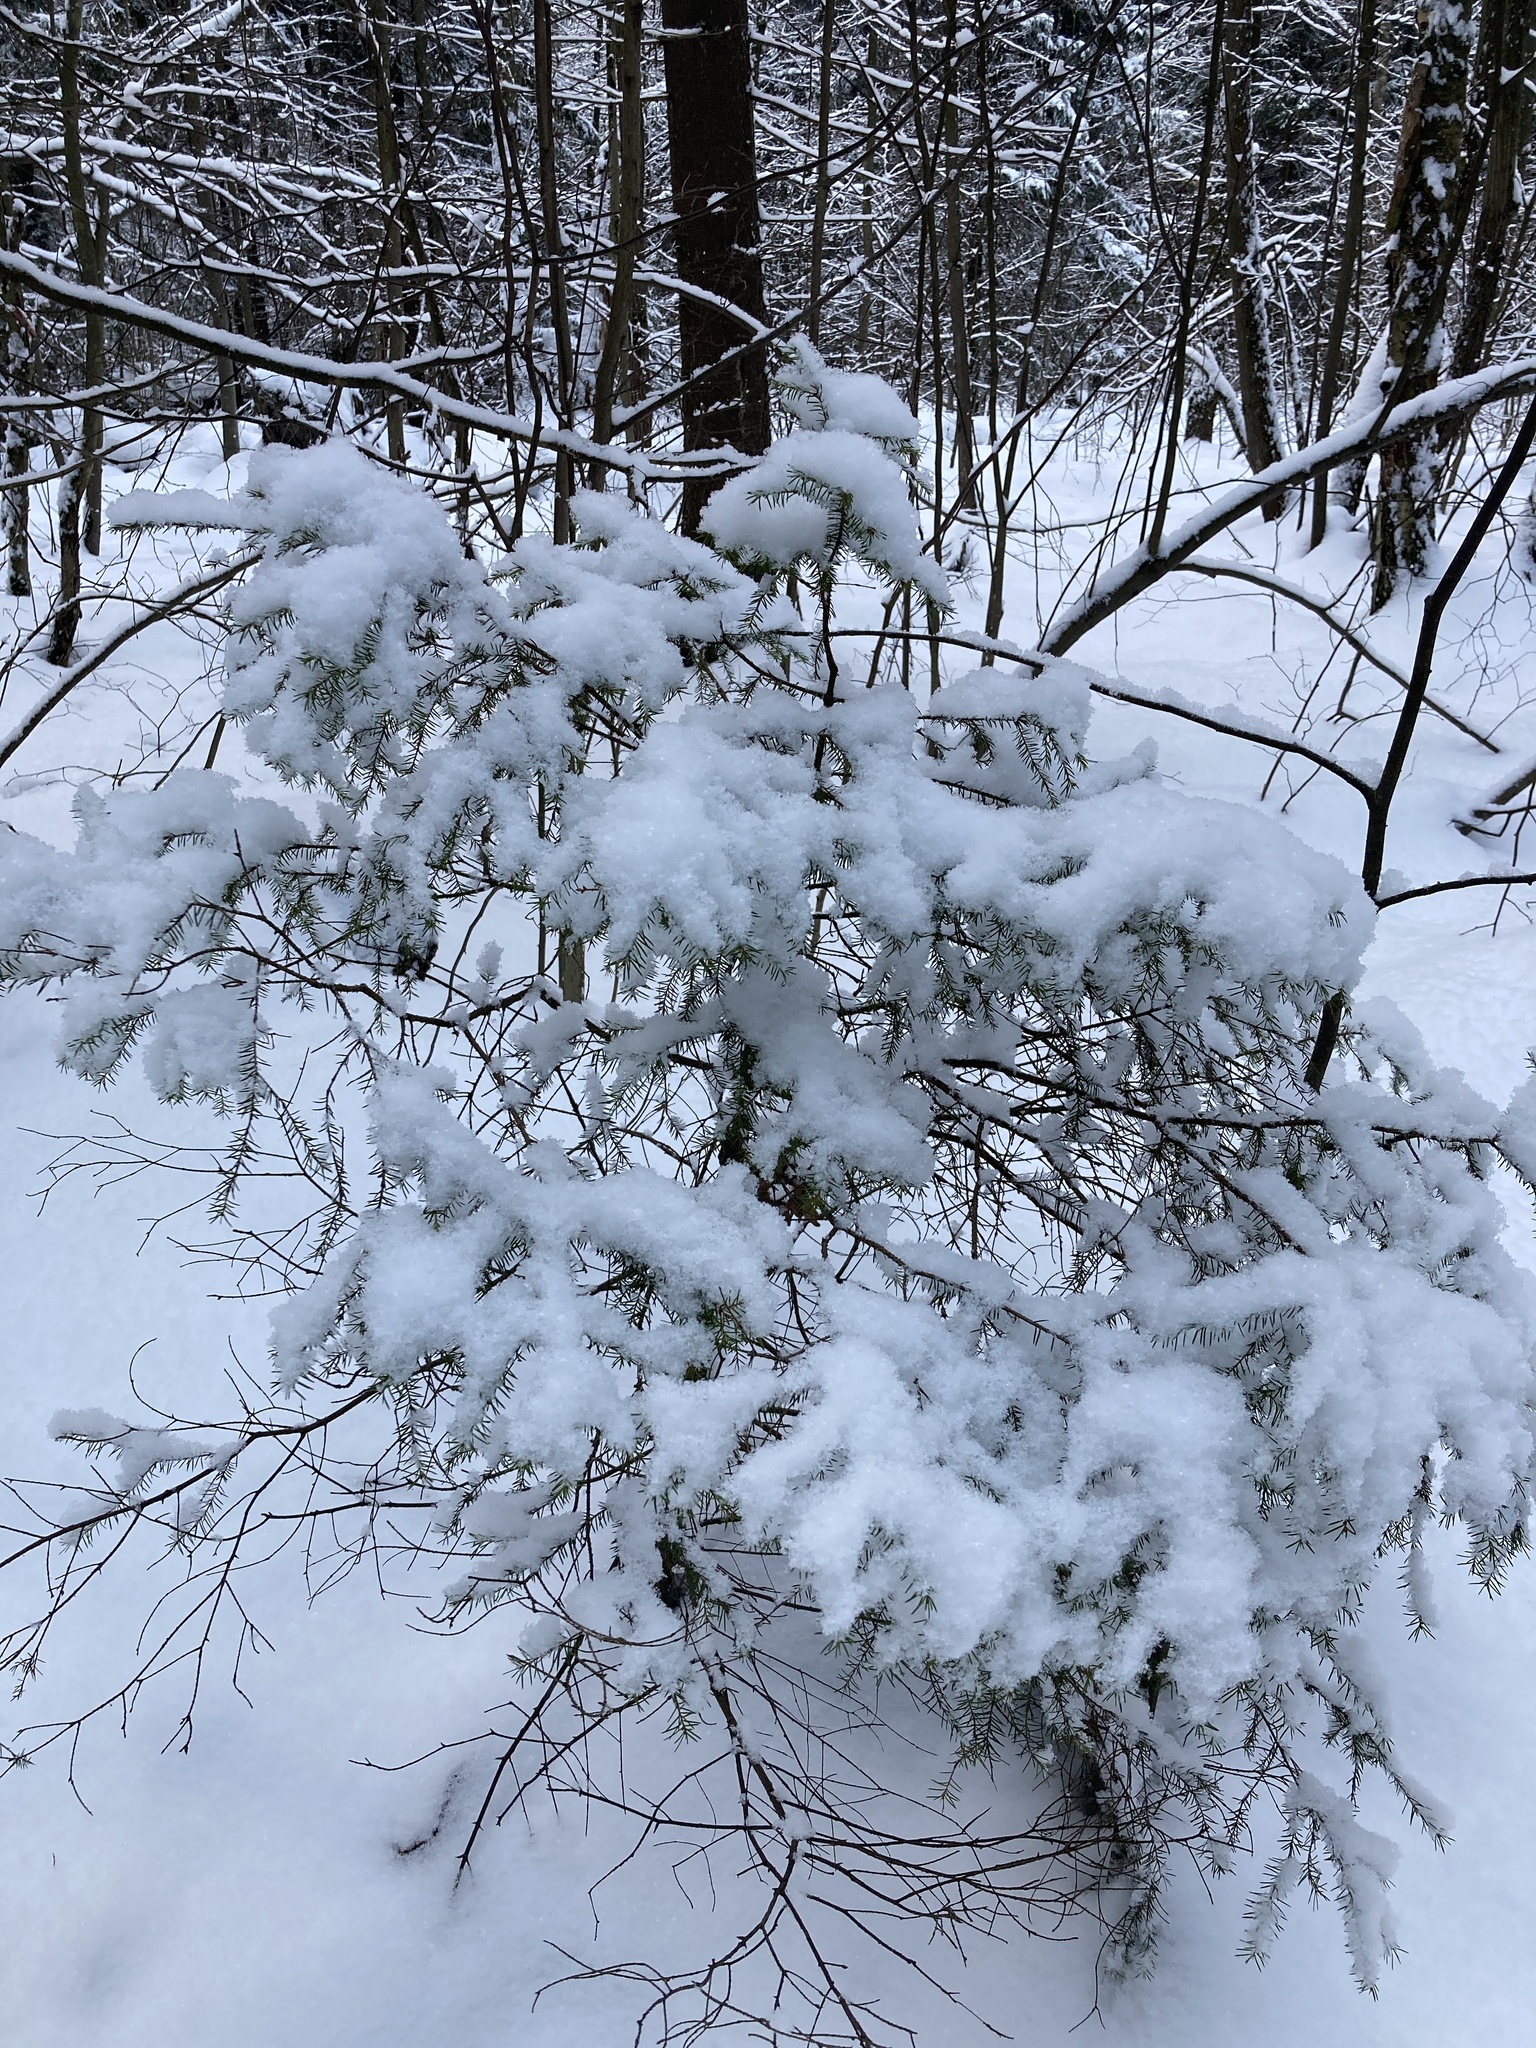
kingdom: Plantae
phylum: Tracheophyta
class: Pinopsida
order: Pinales
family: Pinaceae
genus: Picea
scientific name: Picea abies
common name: Norway spruce
